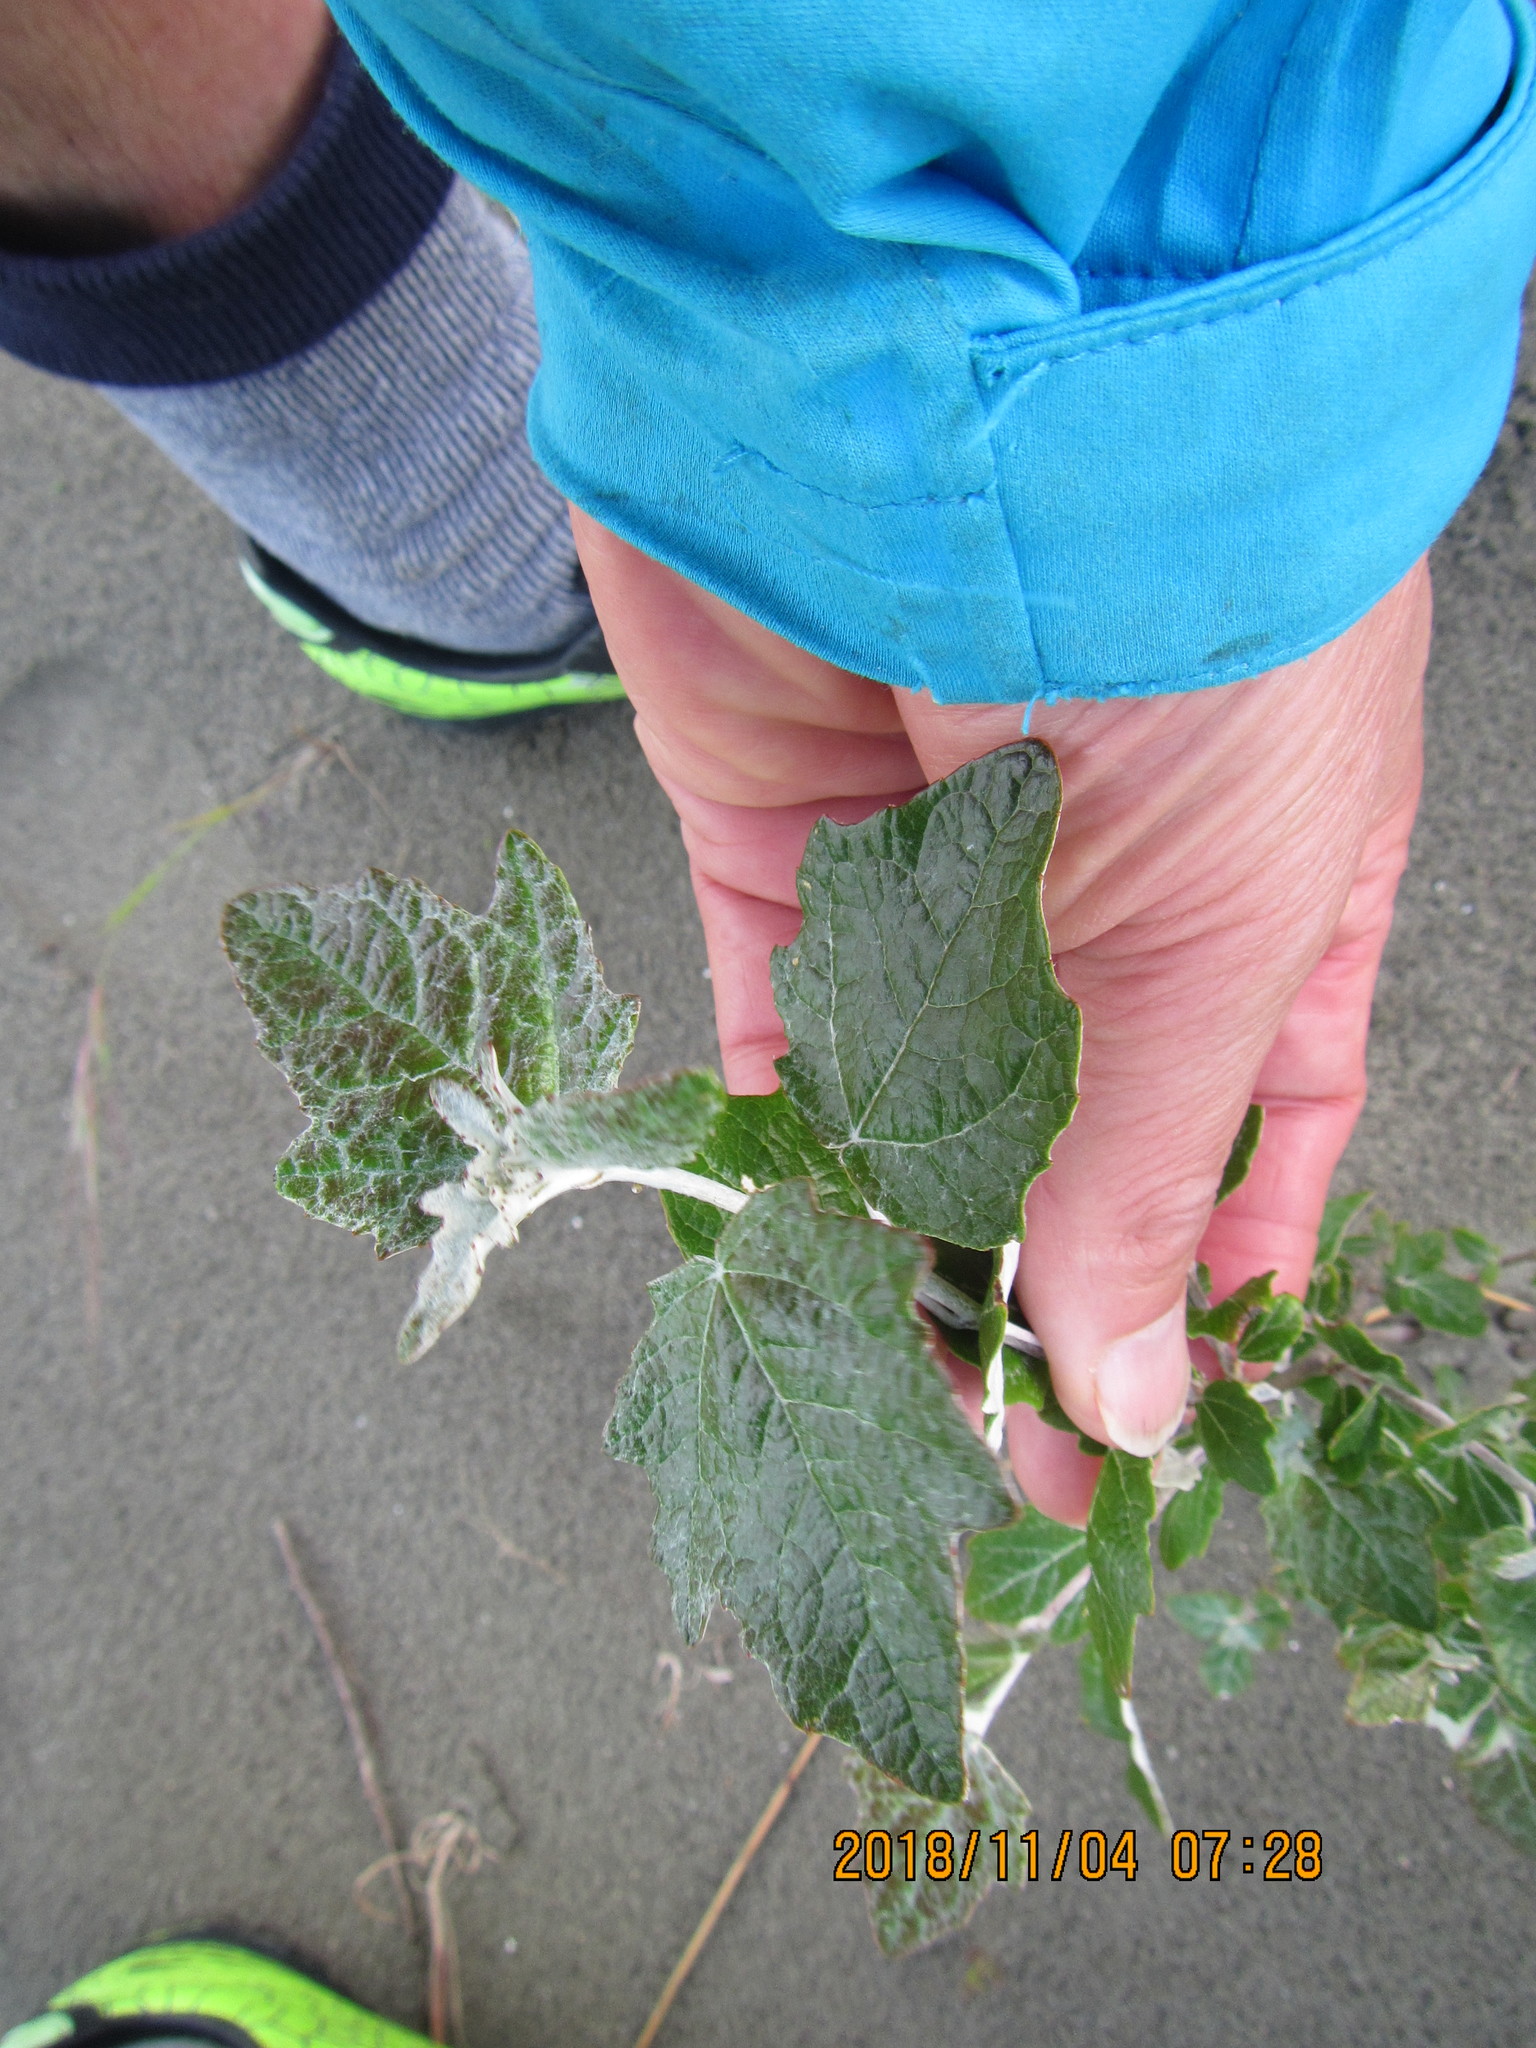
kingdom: Plantae
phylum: Tracheophyta
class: Magnoliopsida
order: Malpighiales
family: Salicaceae
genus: Populus
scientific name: Populus alba
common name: White poplar
